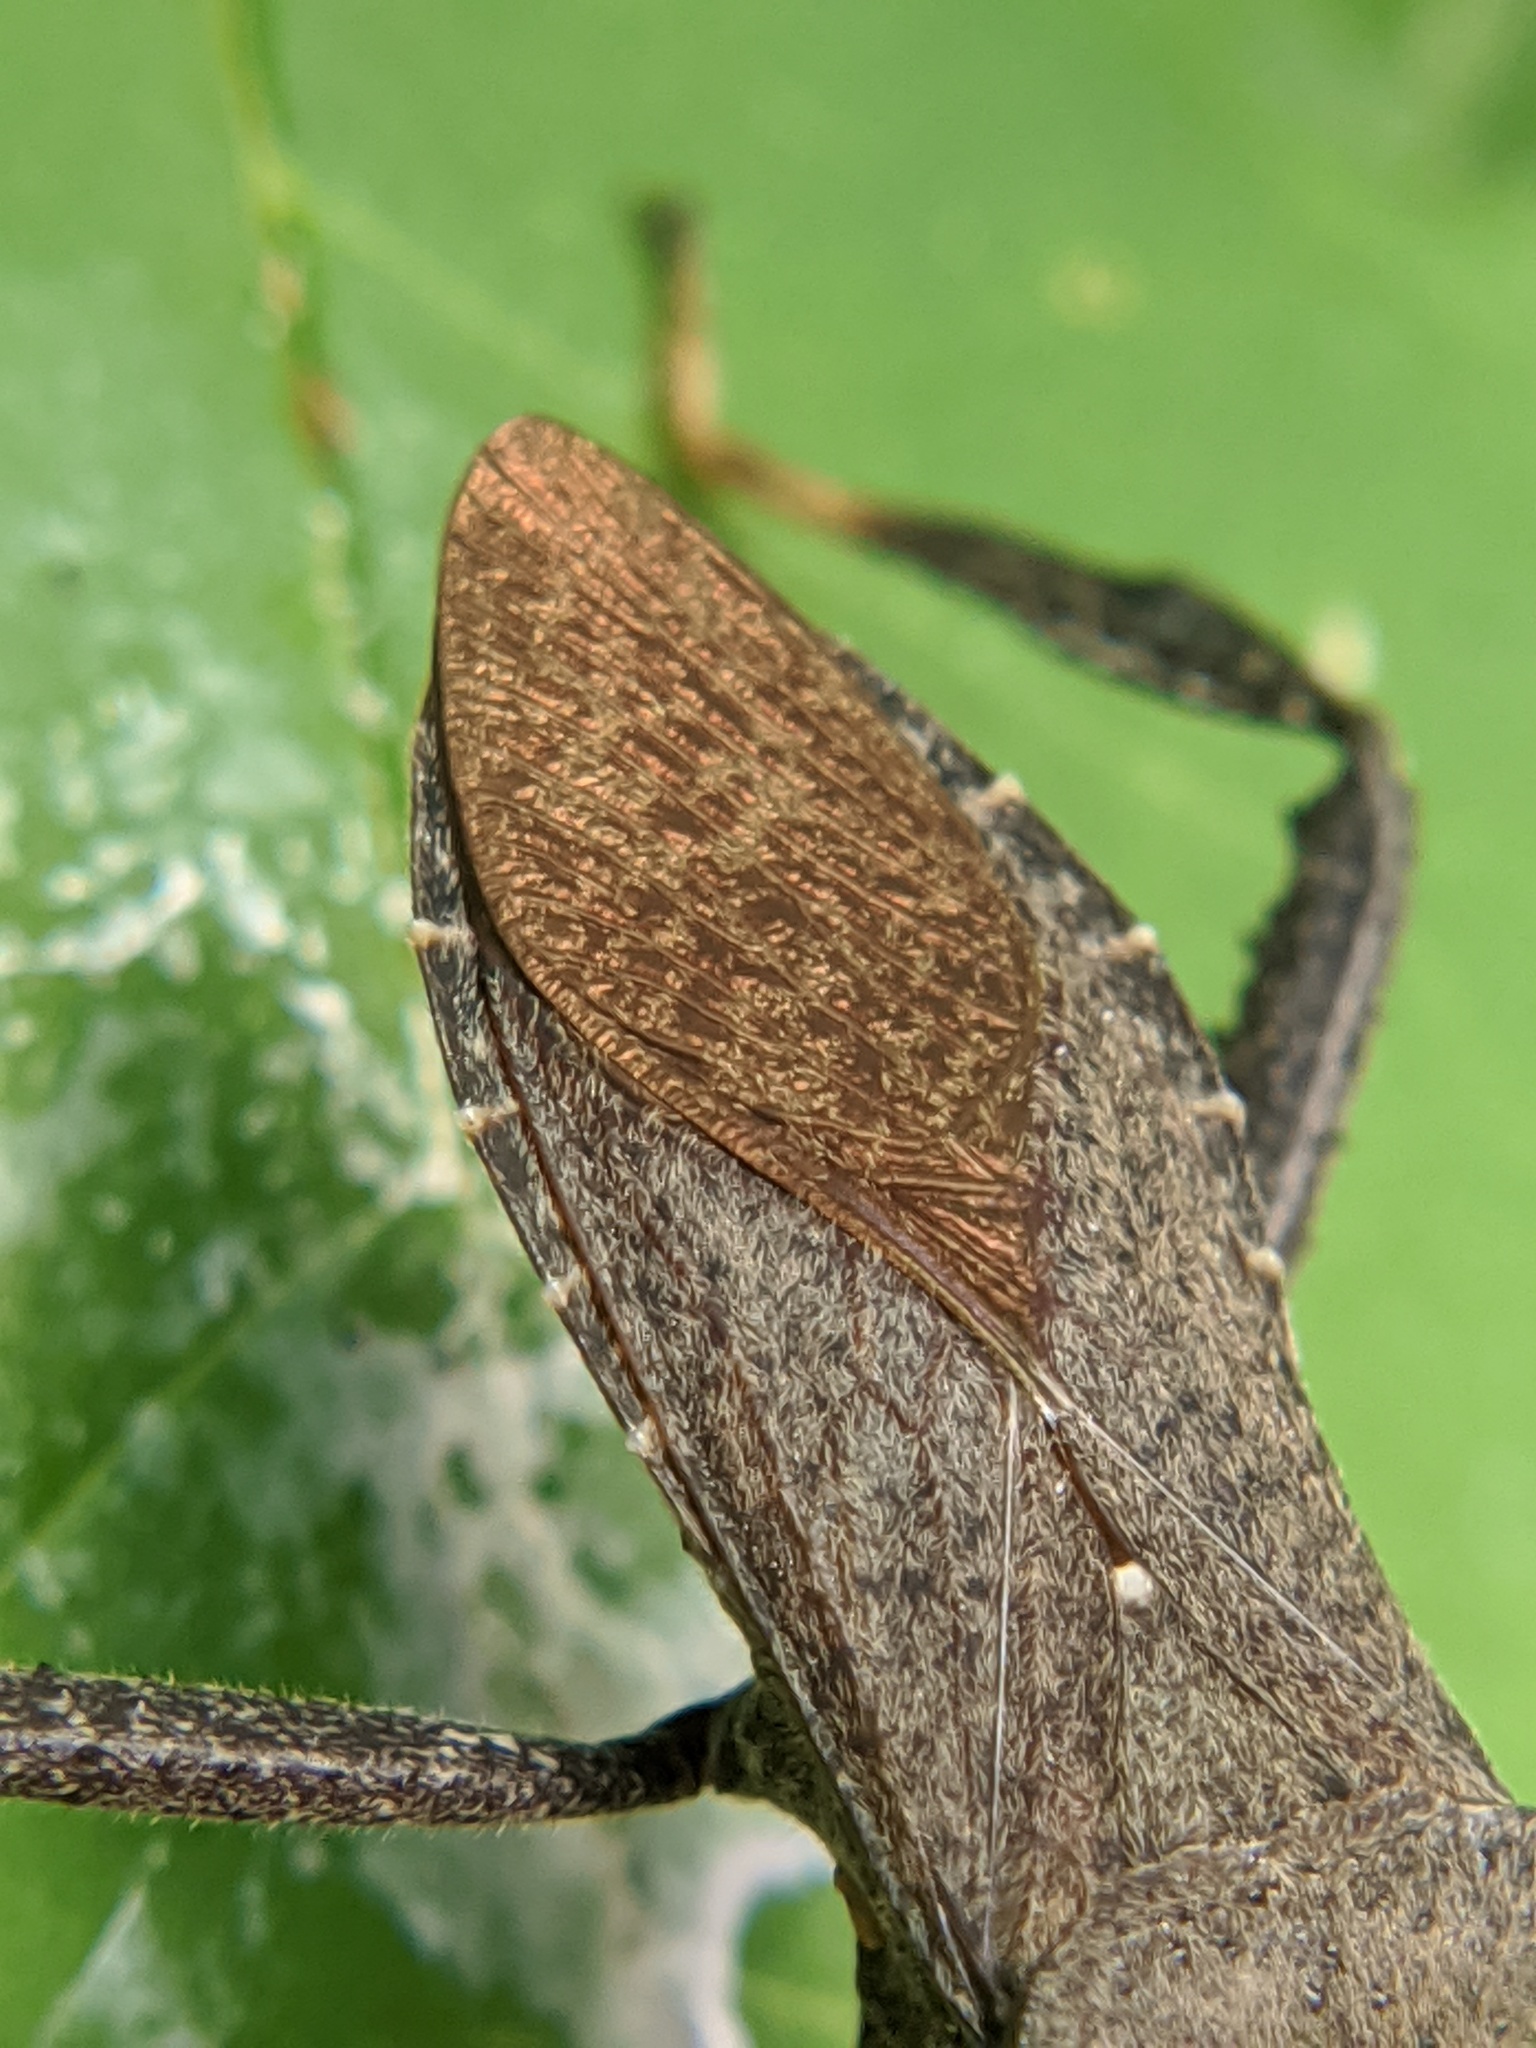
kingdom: Animalia
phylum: Arthropoda
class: Insecta
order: Hemiptera
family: Coreidae
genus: Acanthocephala
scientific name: Acanthocephala terminalis
